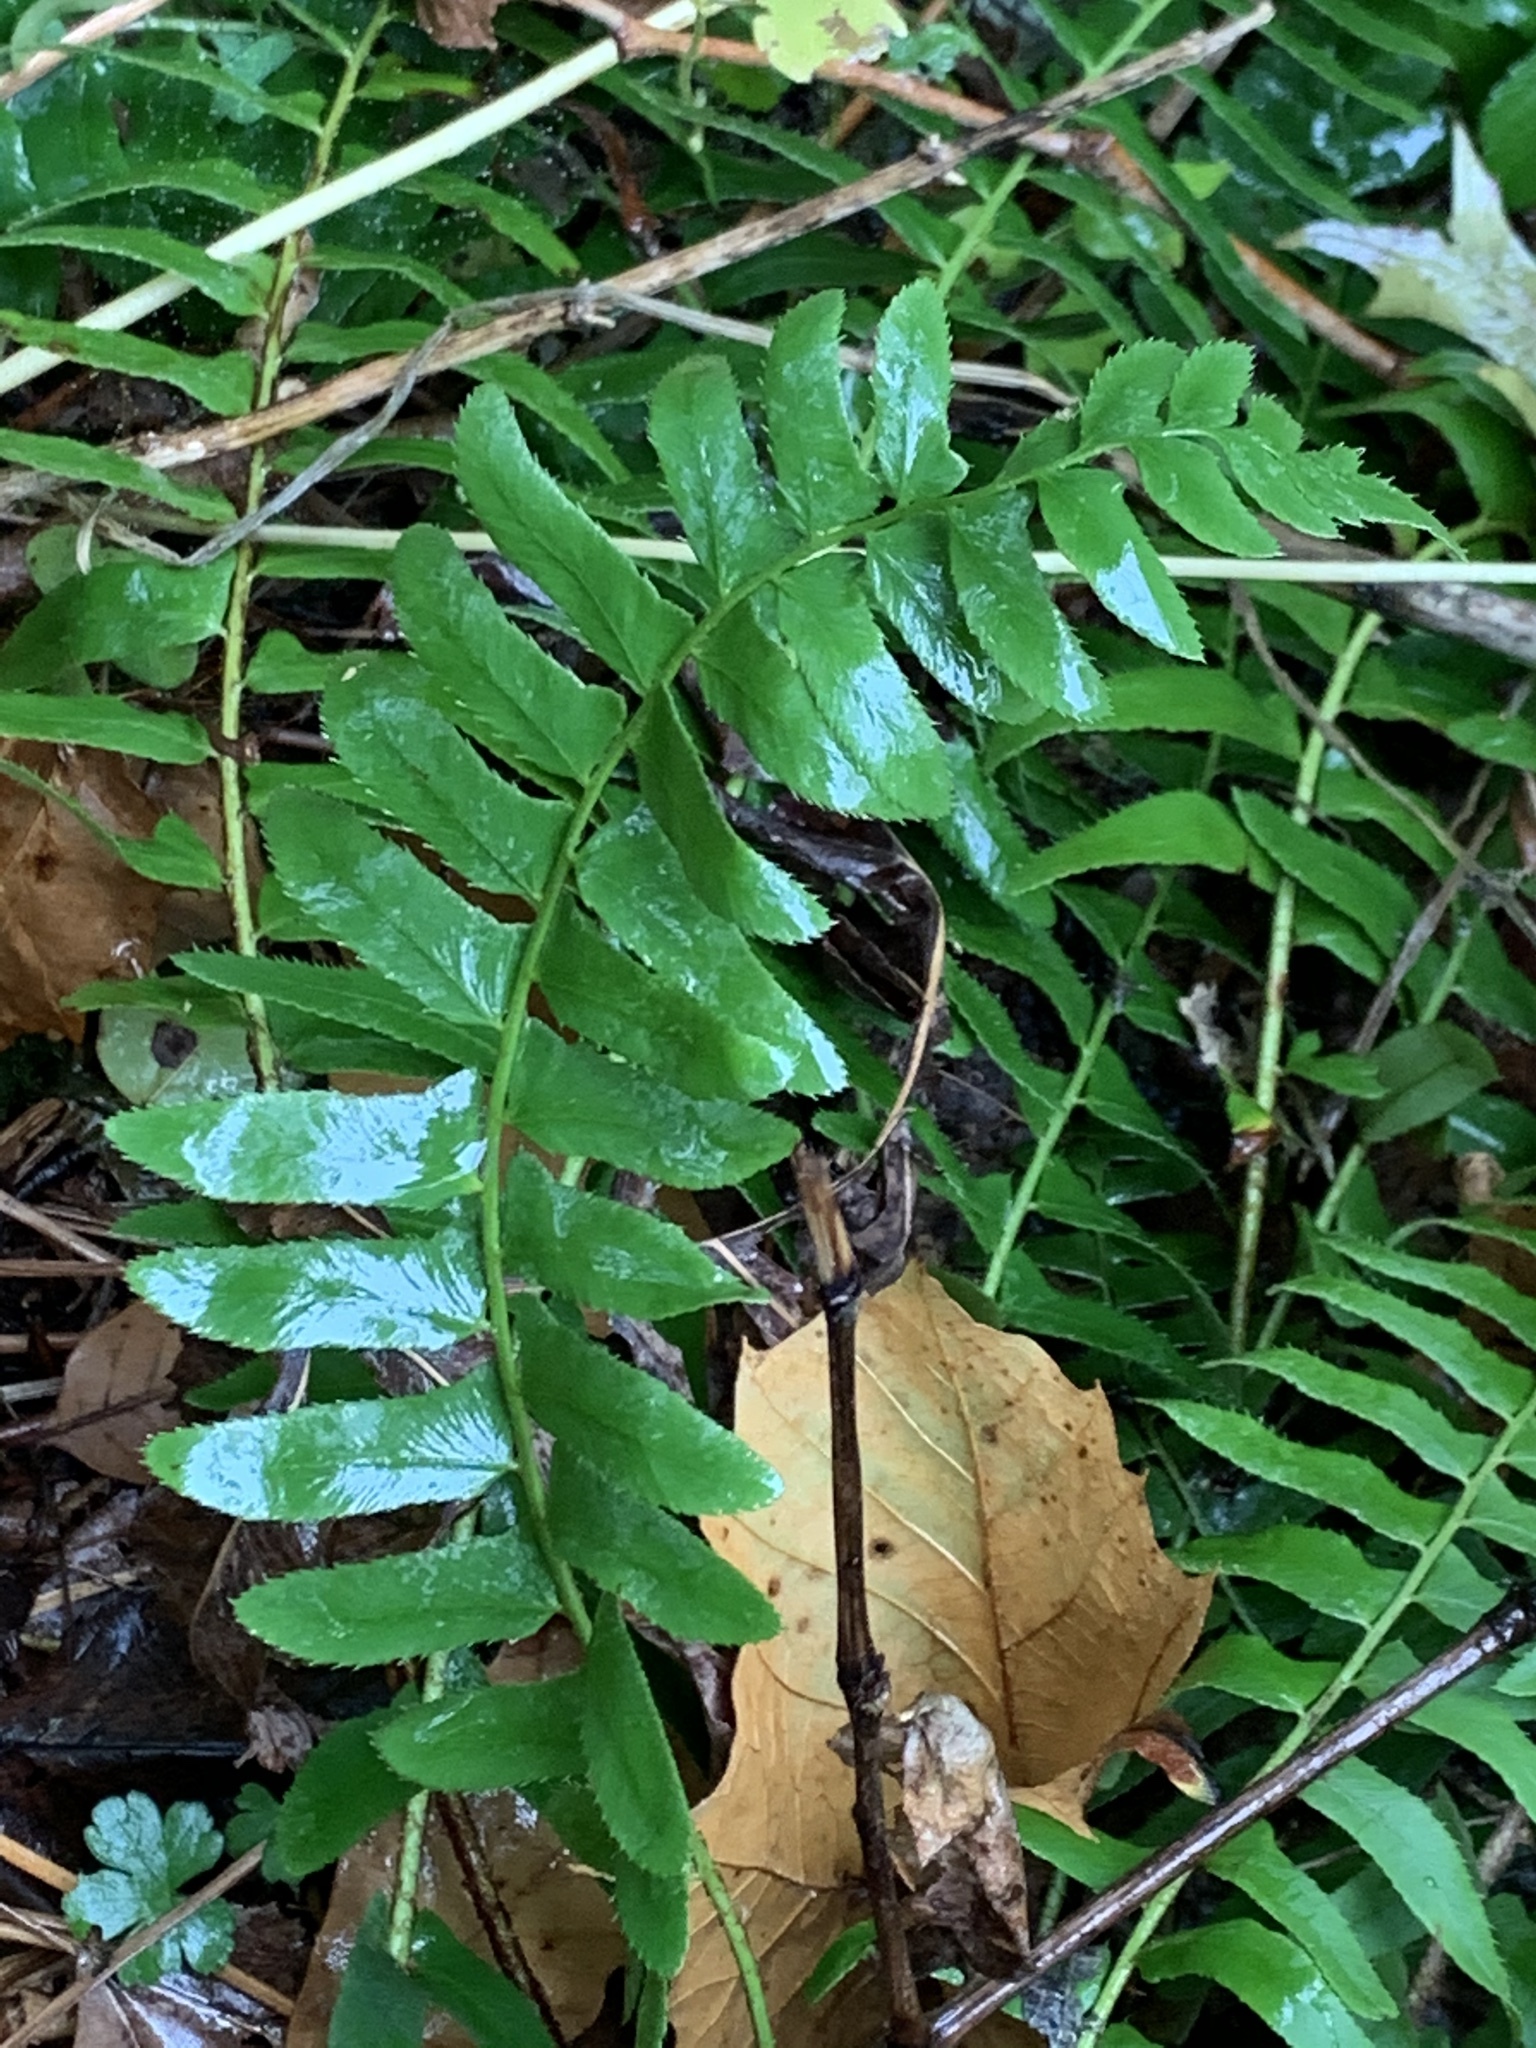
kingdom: Plantae
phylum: Tracheophyta
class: Polypodiopsida
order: Polypodiales
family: Dryopteridaceae
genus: Polystichum
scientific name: Polystichum acrostichoides
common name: Christmas fern
